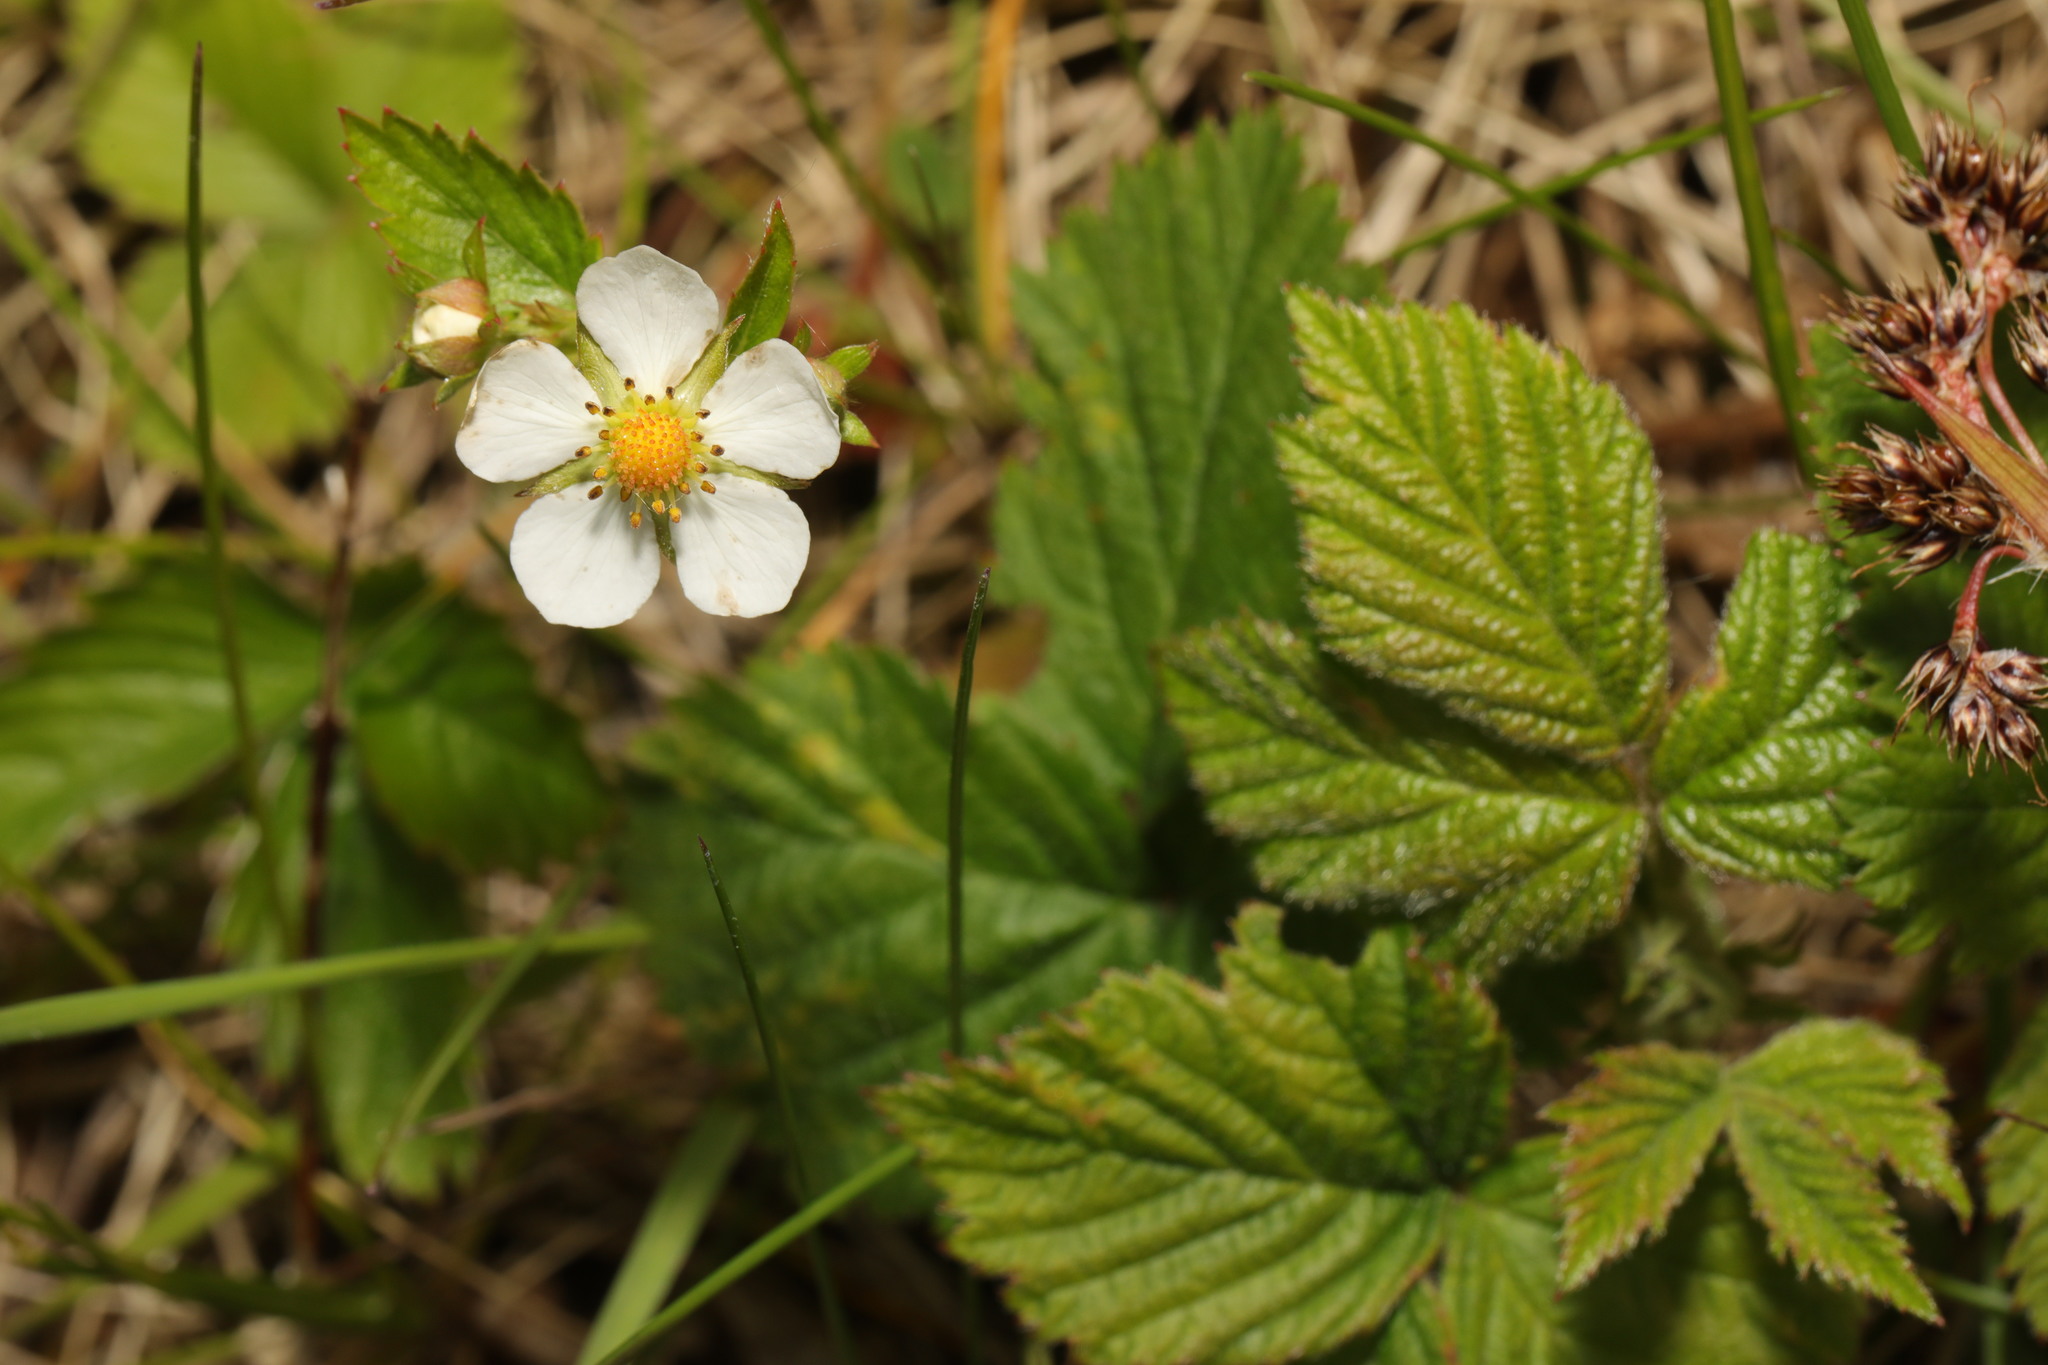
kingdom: Plantae
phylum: Tracheophyta
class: Magnoliopsida
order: Rosales
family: Rosaceae
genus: Fragaria
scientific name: Fragaria vesca
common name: Wild strawberry
